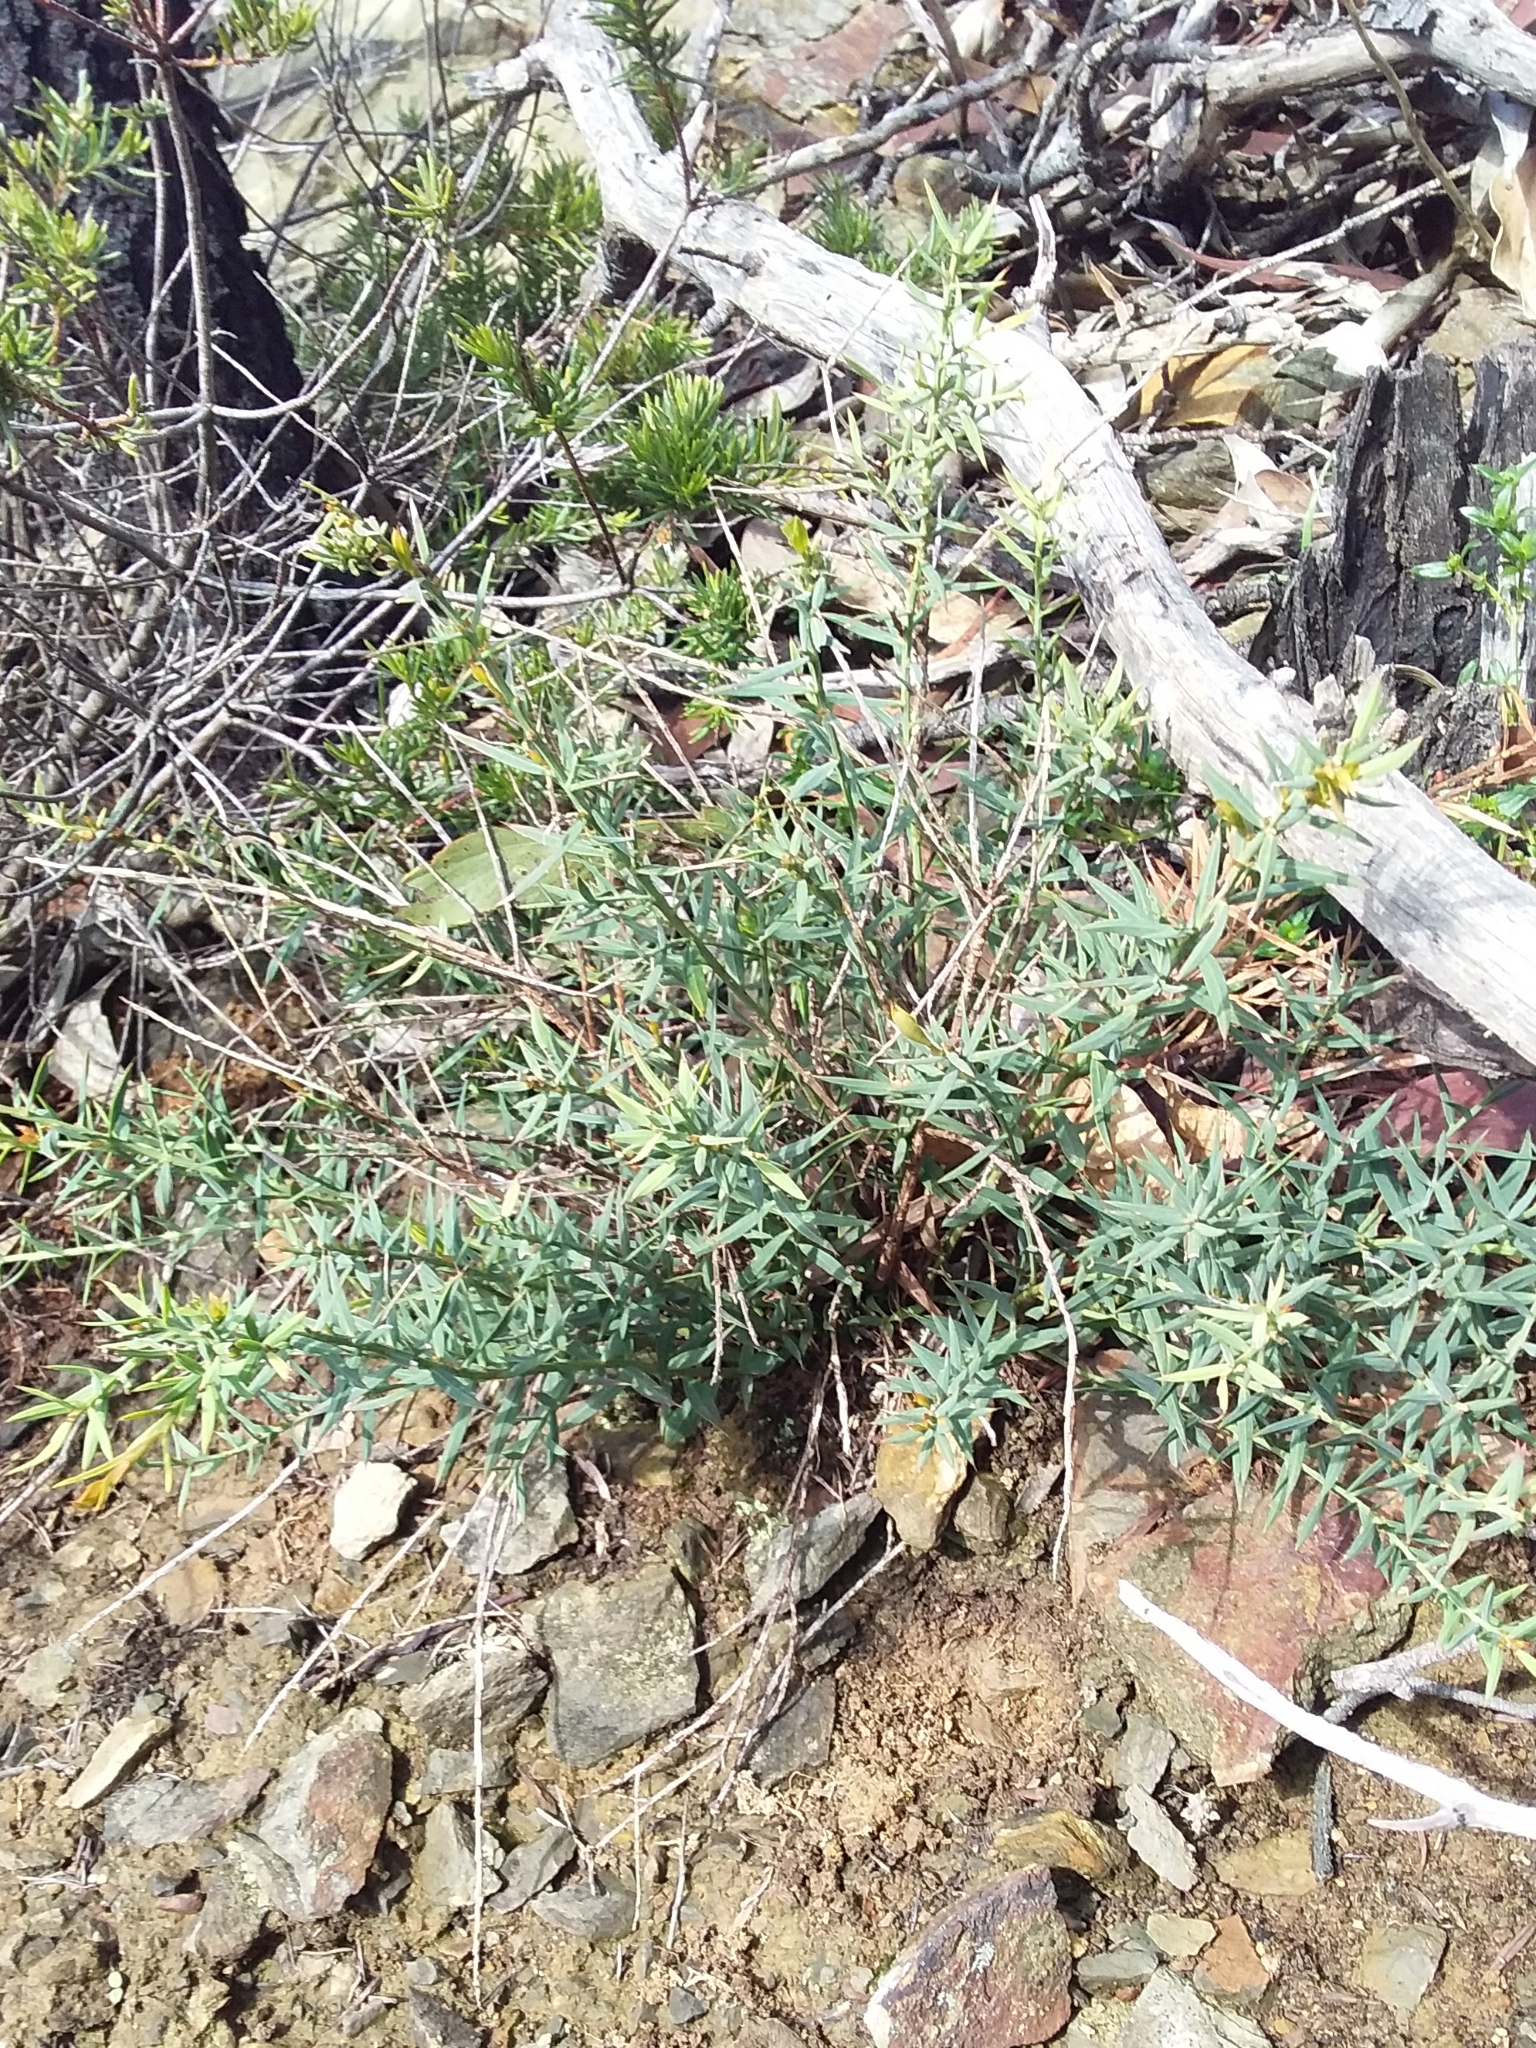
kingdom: Plantae
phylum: Tracheophyta
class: Magnoliopsida
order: Fabales
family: Fabaceae
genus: Daviesia
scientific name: Daviesia ulicifolia
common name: Gorse bitter-pea
